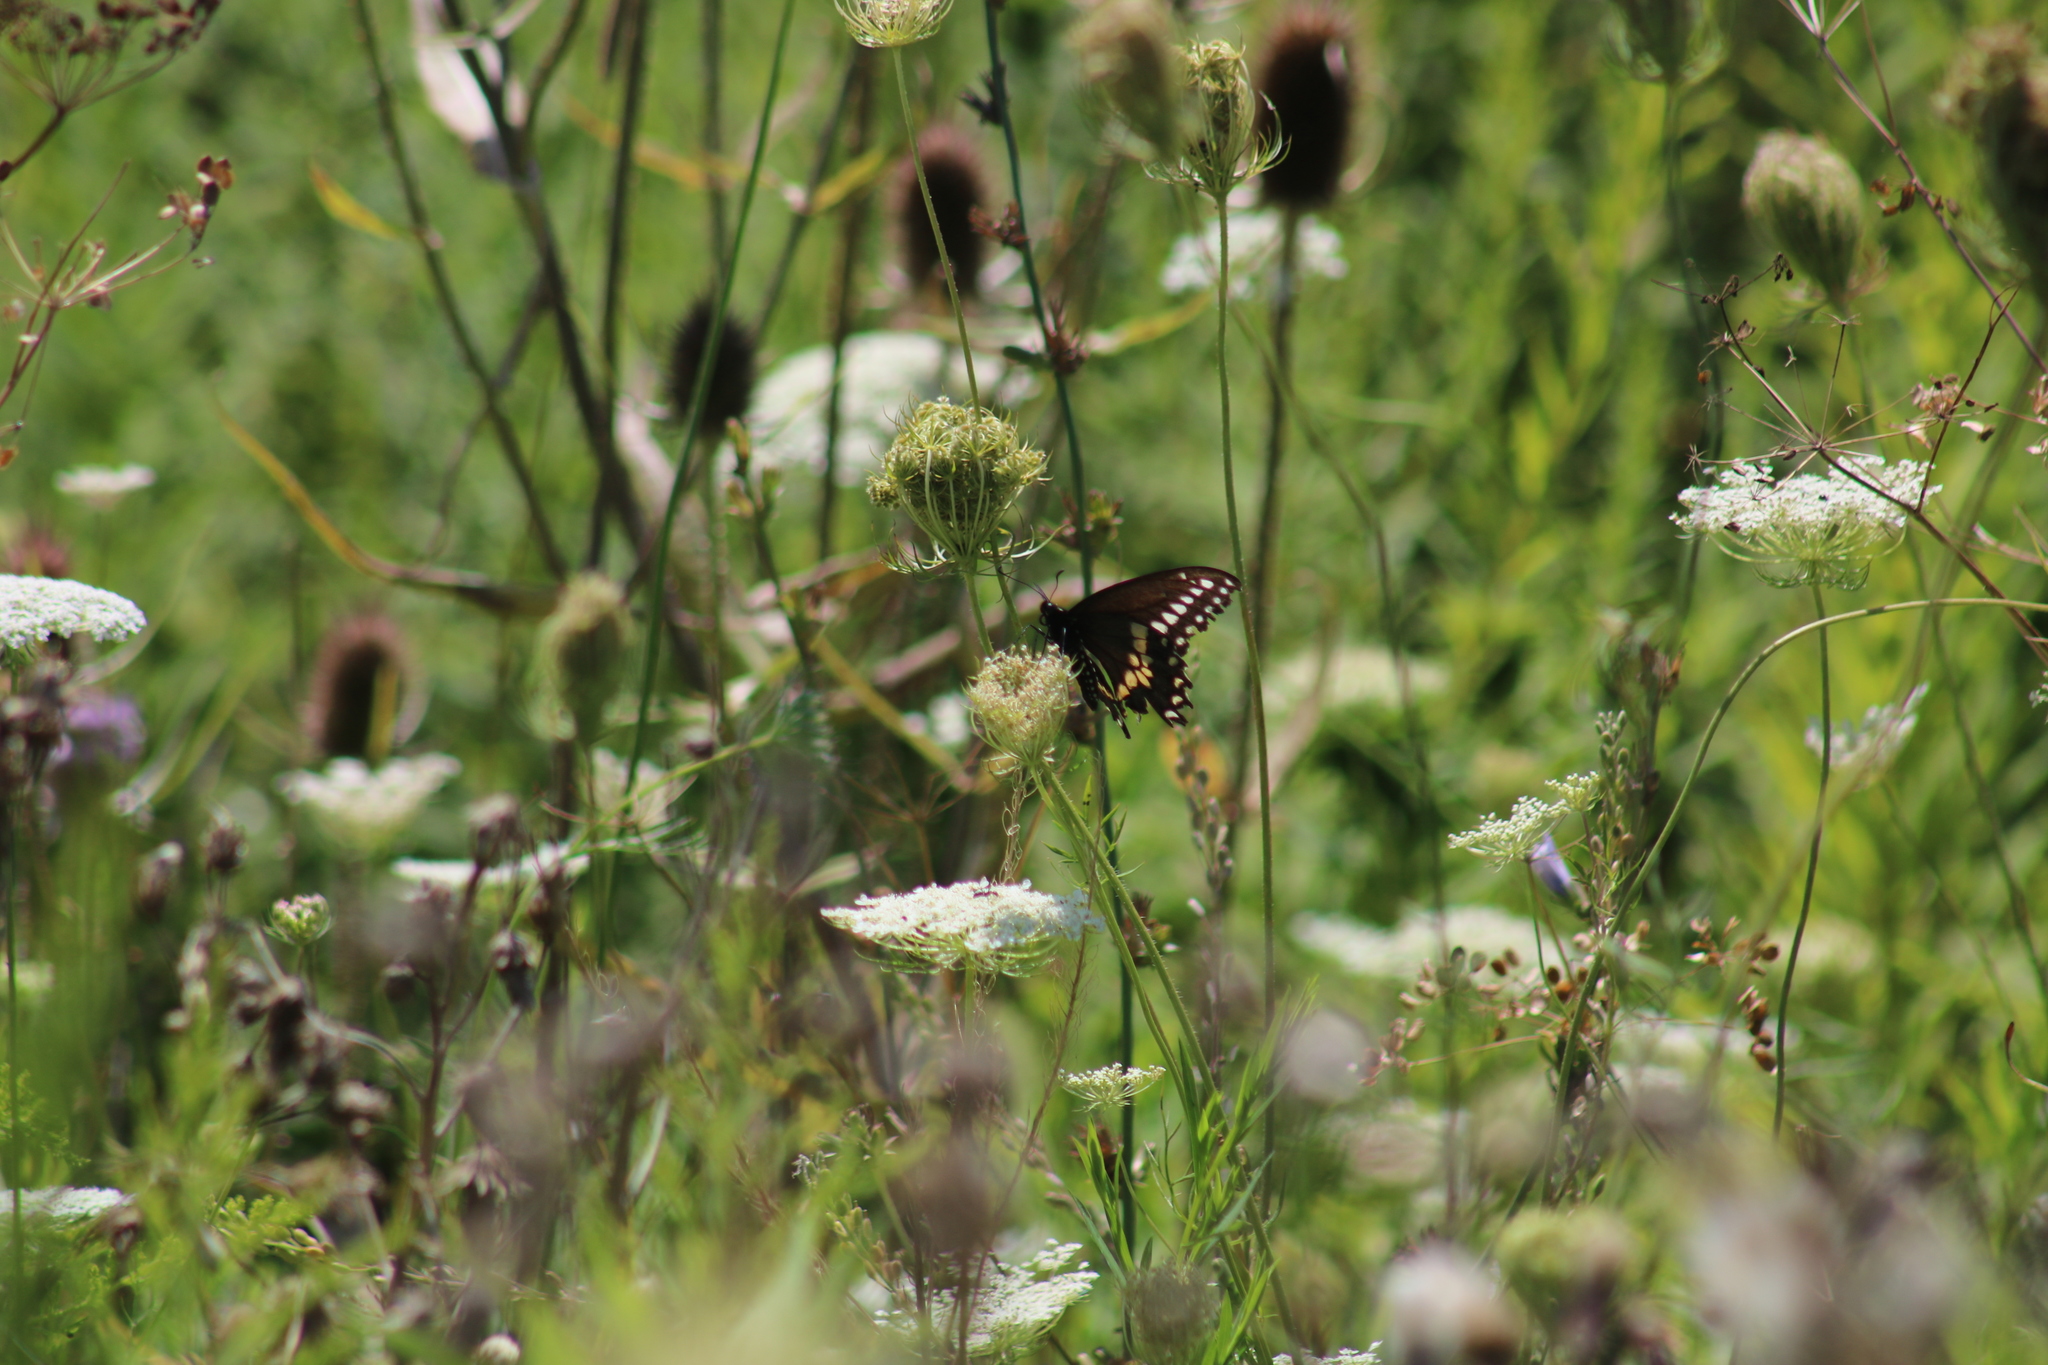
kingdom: Animalia
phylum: Arthropoda
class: Insecta
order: Lepidoptera
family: Papilionidae
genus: Papilio
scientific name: Papilio polyxenes
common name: Black swallowtail
